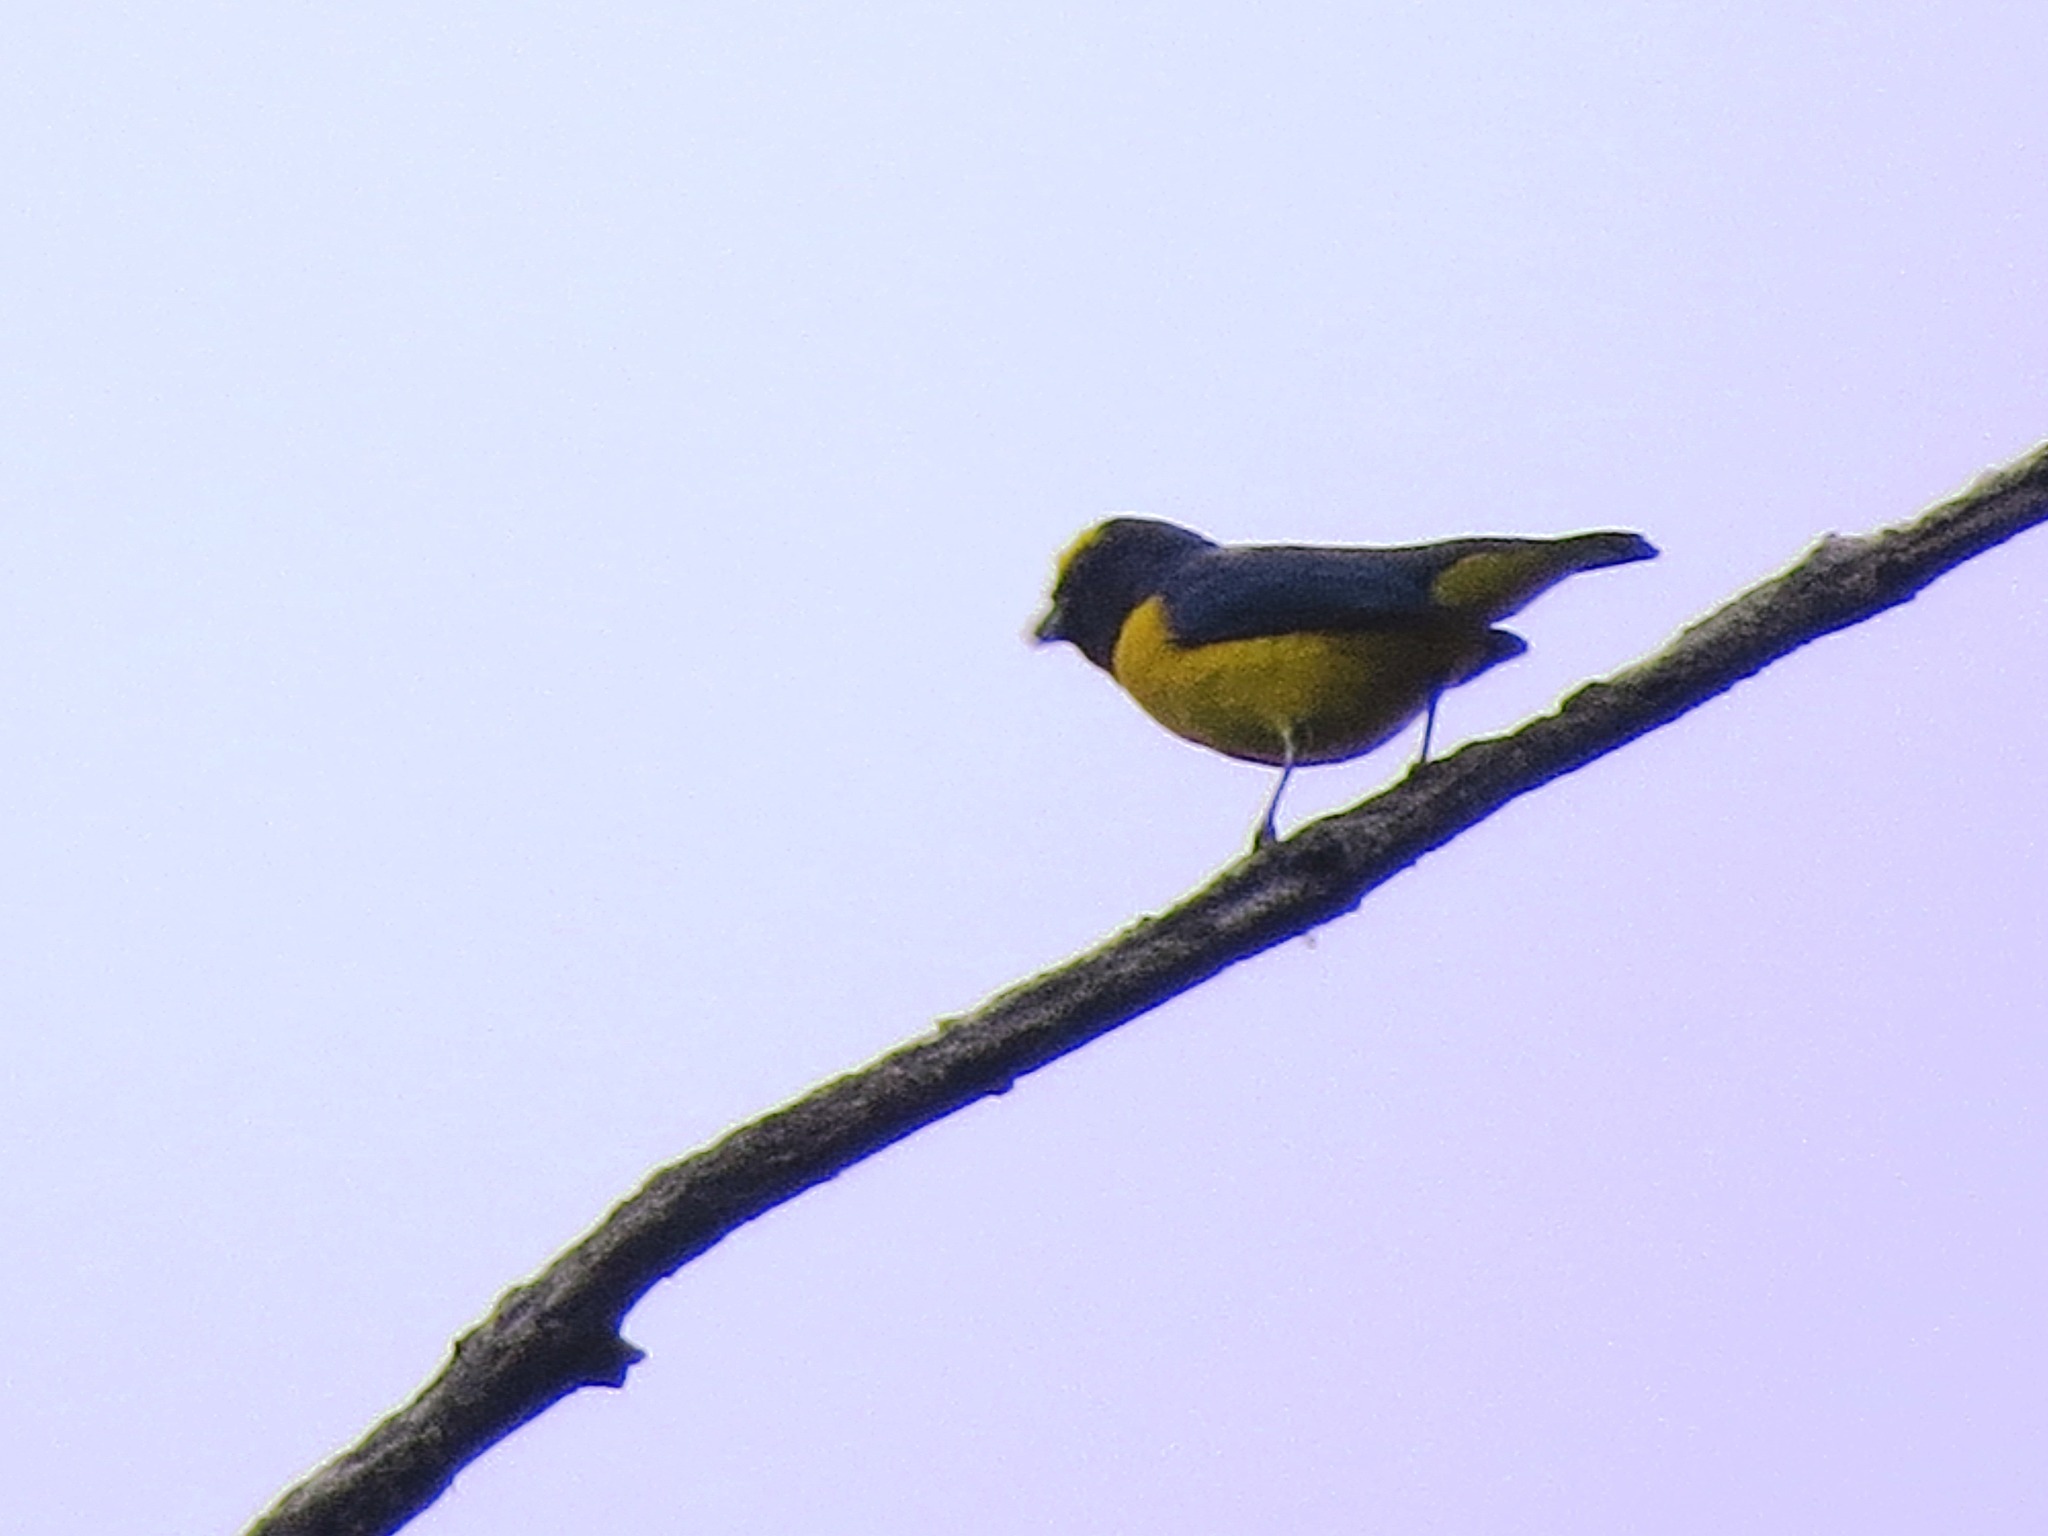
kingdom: Animalia
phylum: Chordata
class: Aves
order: Passeriformes
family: Fringillidae
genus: Euphonia
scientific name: Euphonia affinis
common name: Scrub euphonia
